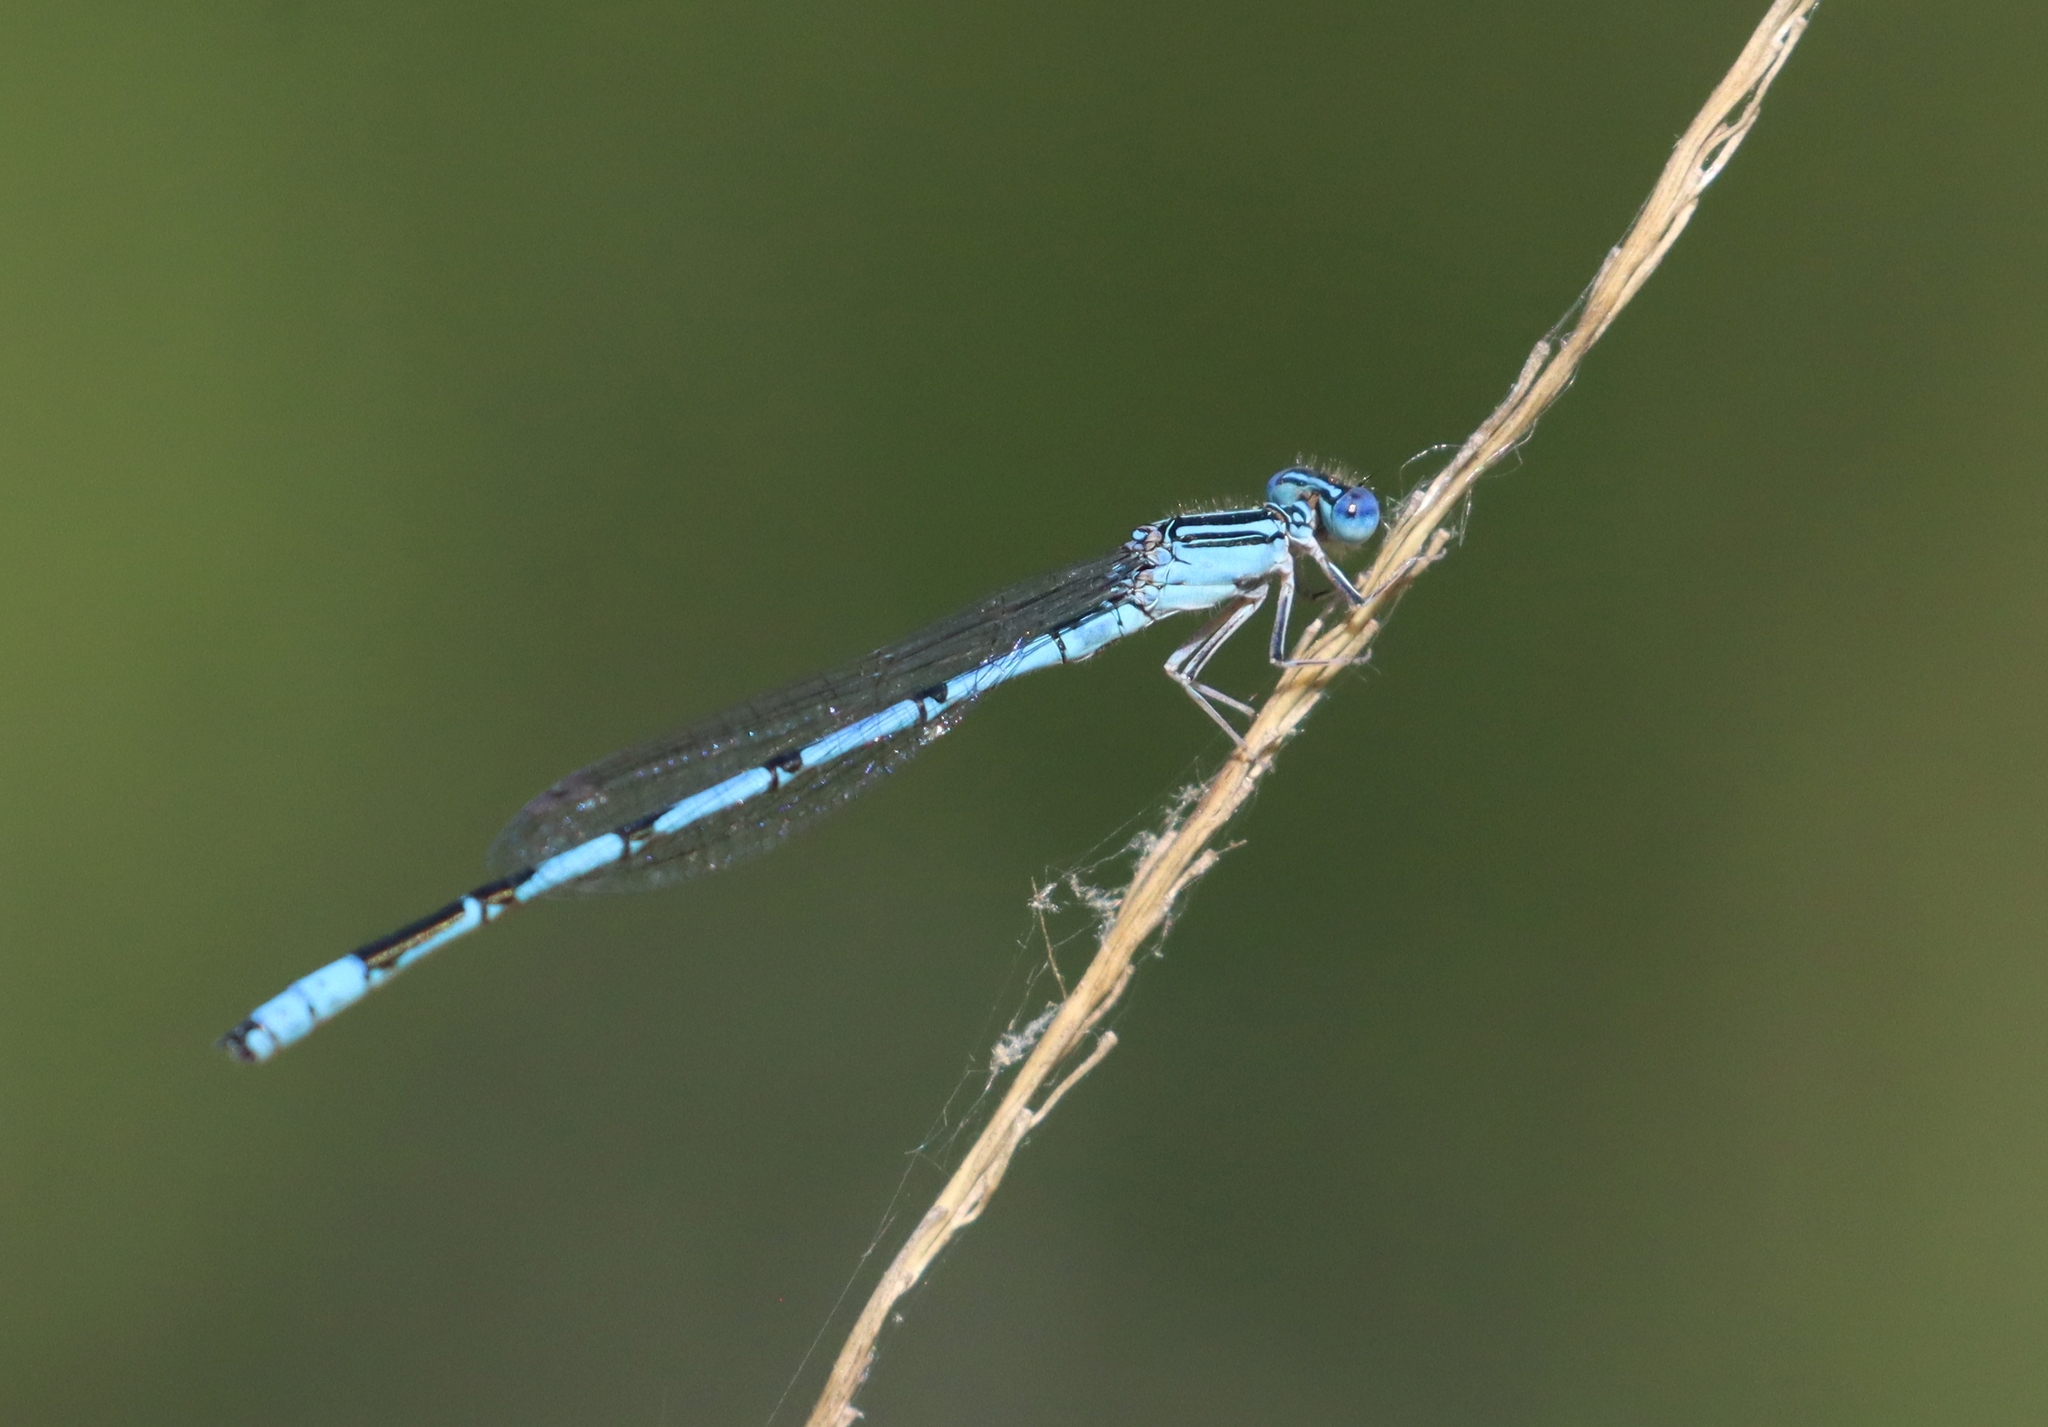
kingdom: Animalia
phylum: Arthropoda
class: Insecta
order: Odonata
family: Coenagrionidae
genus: Enallagma
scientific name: Enallagma basidens
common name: Double-striped bluet
